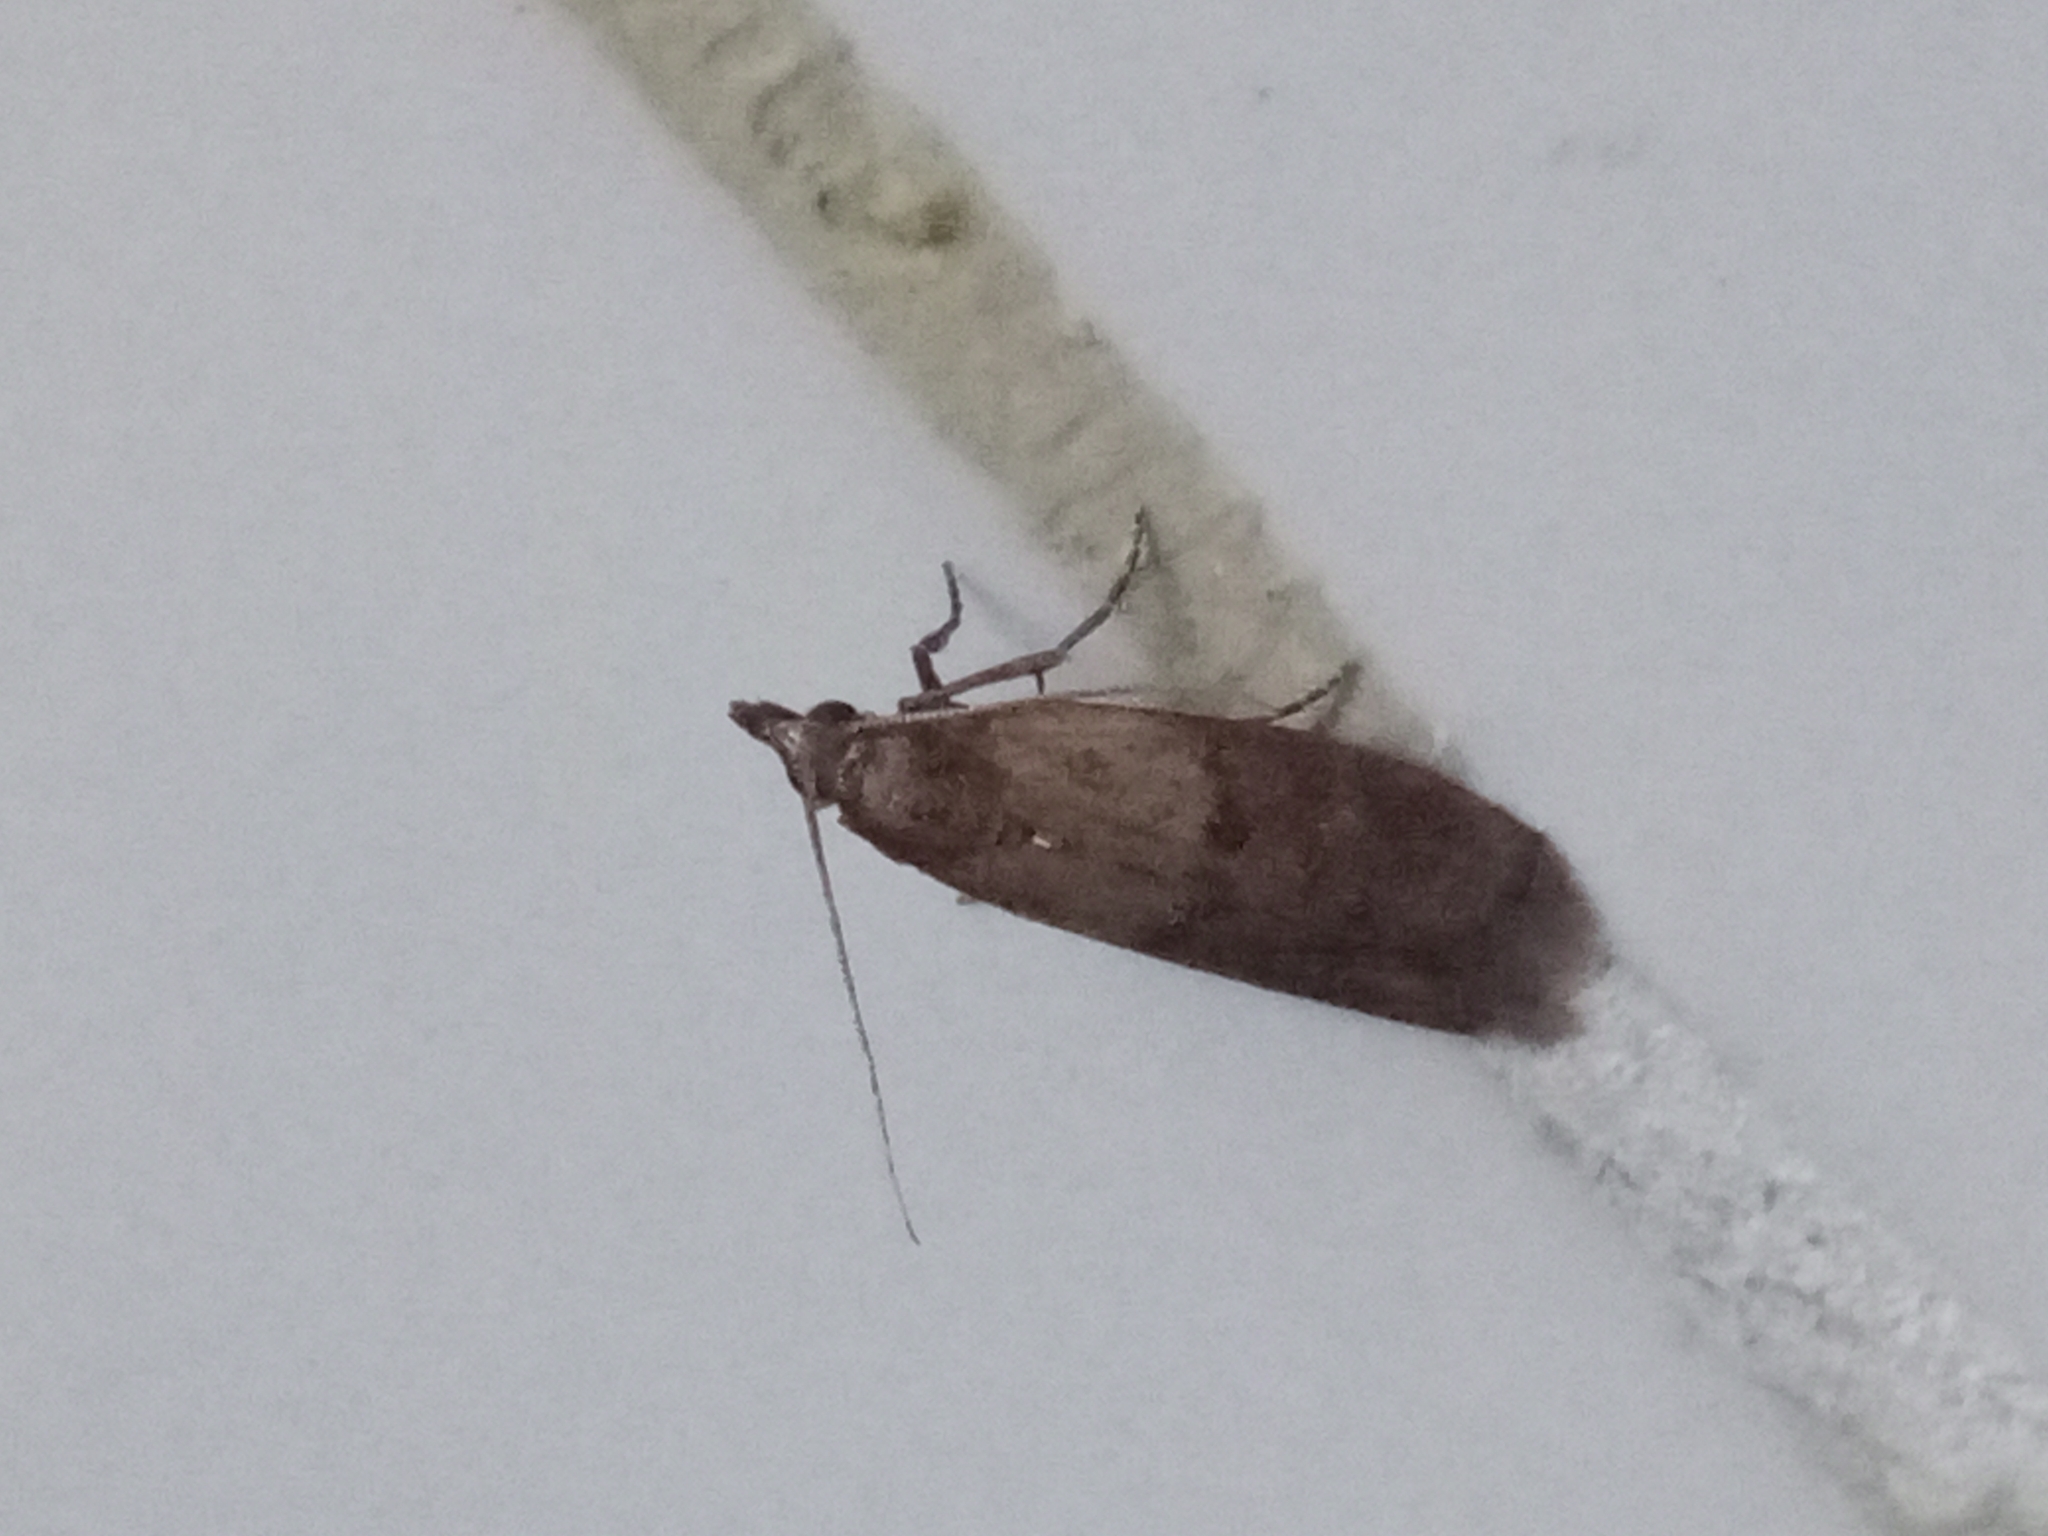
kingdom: Animalia
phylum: Arthropoda
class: Insecta
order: Lepidoptera
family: Pyralidae
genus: Plodia
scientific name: Plodia interpunctella
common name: Indian meal moth
